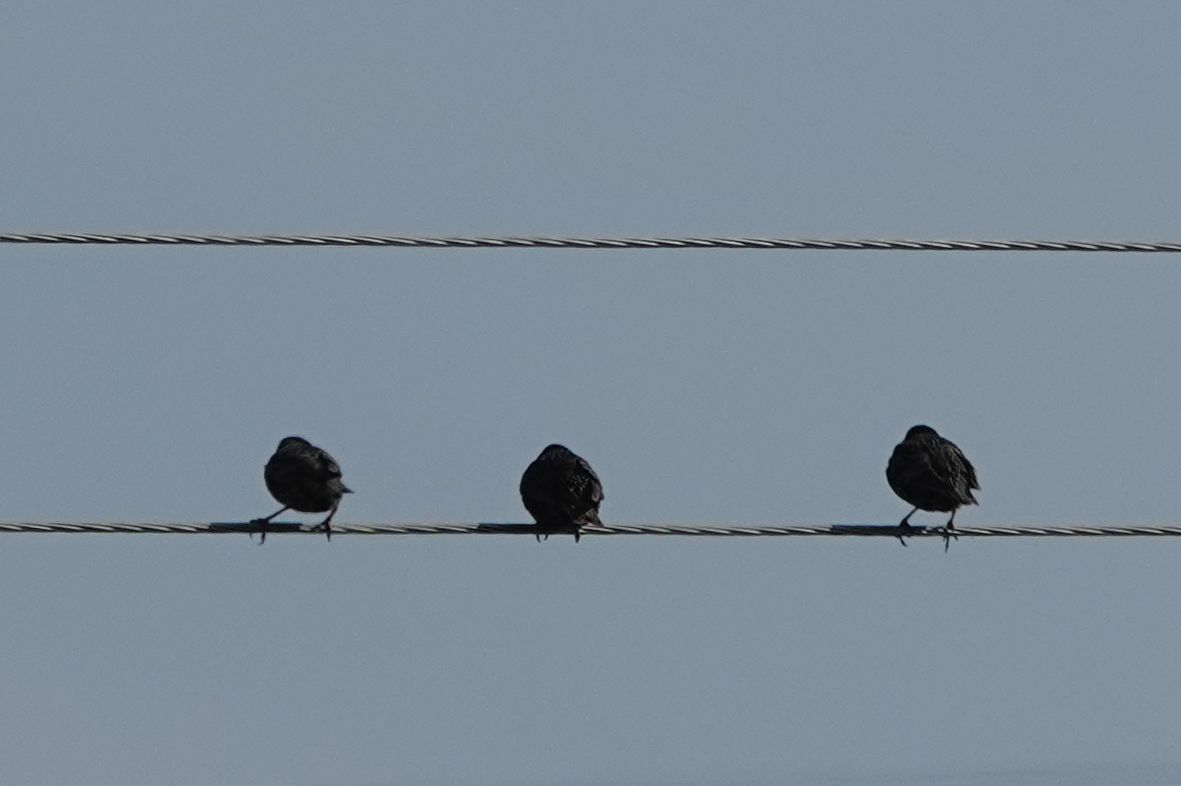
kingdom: Animalia
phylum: Chordata
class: Aves
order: Passeriformes
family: Sturnidae
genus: Sturnus
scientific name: Sturnus vulgaris
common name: Common starling
